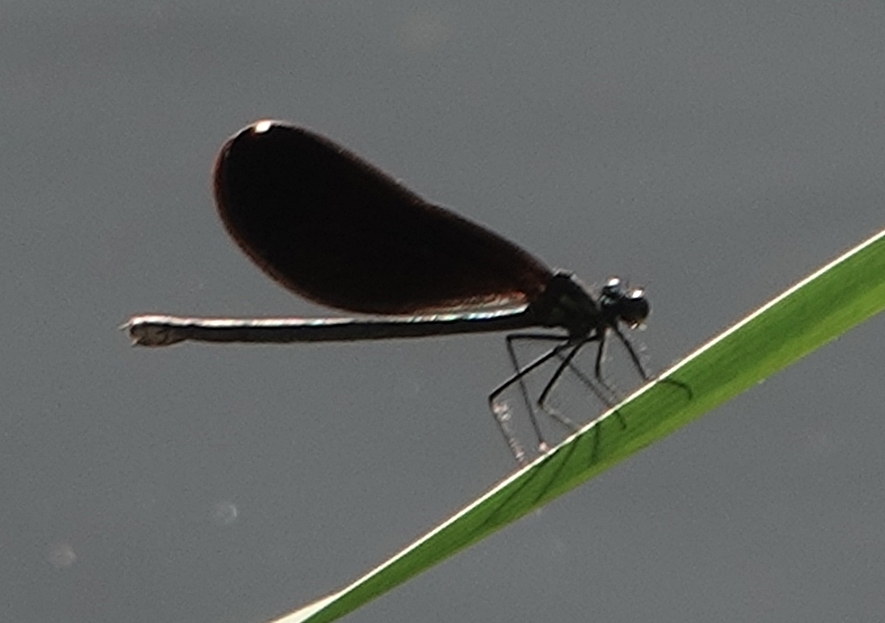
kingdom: Animalia
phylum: Arthropoda
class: Insecta
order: Odonata
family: Calopterygidae
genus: Calopteryx
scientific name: Calopteryx maculata
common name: Ebony jewelwing
